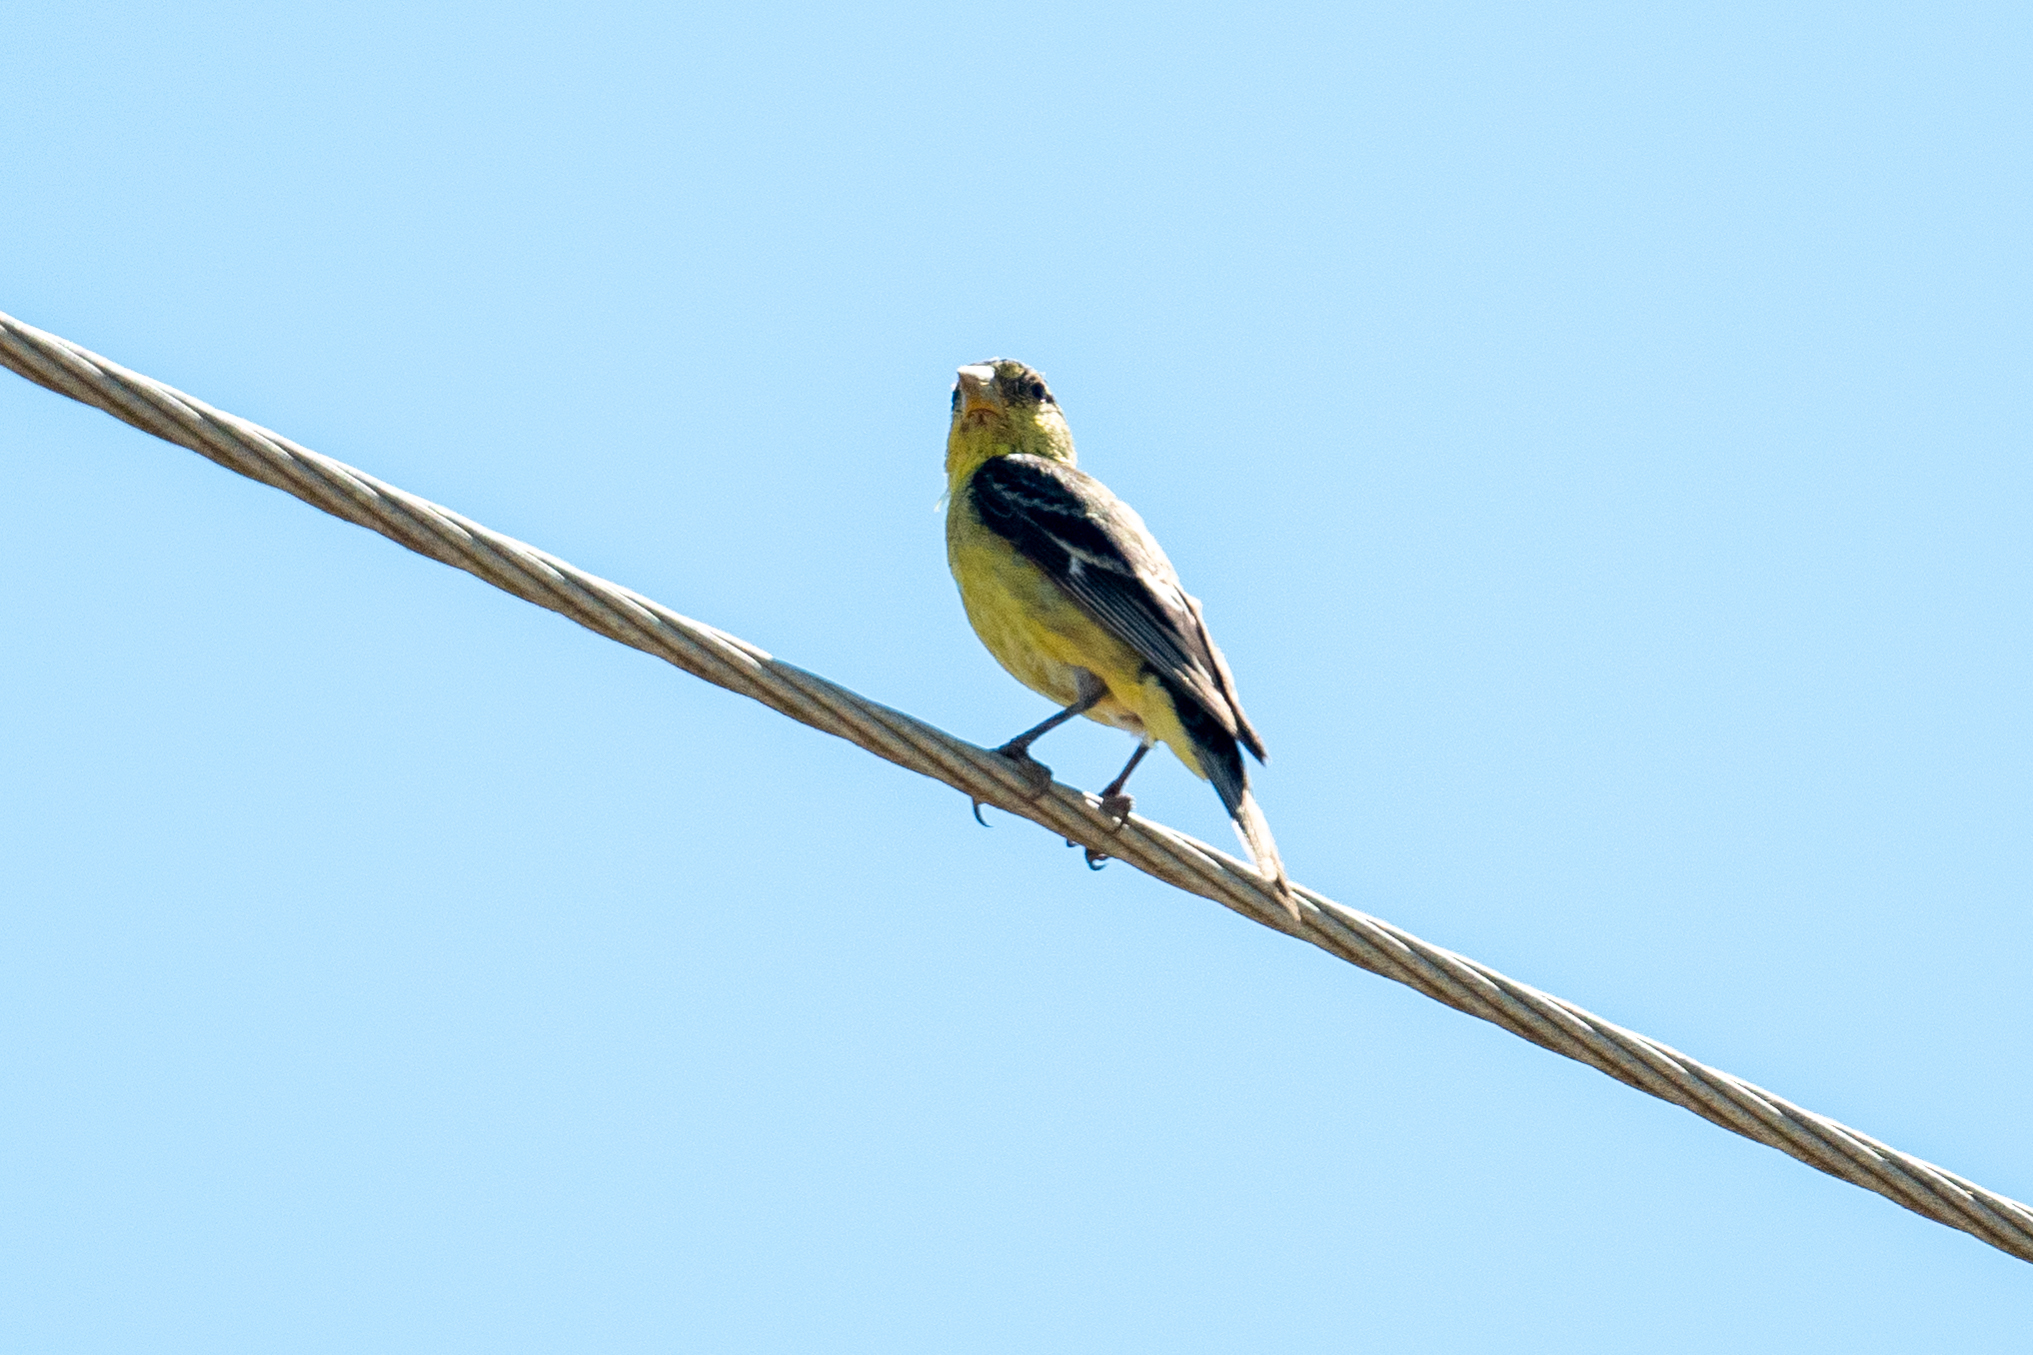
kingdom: Animalia
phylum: Chordata
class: Aves
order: Passeriformes
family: Fringillidae
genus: Spinus
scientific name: Spinus psaltria
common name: Lesser goldfinch
